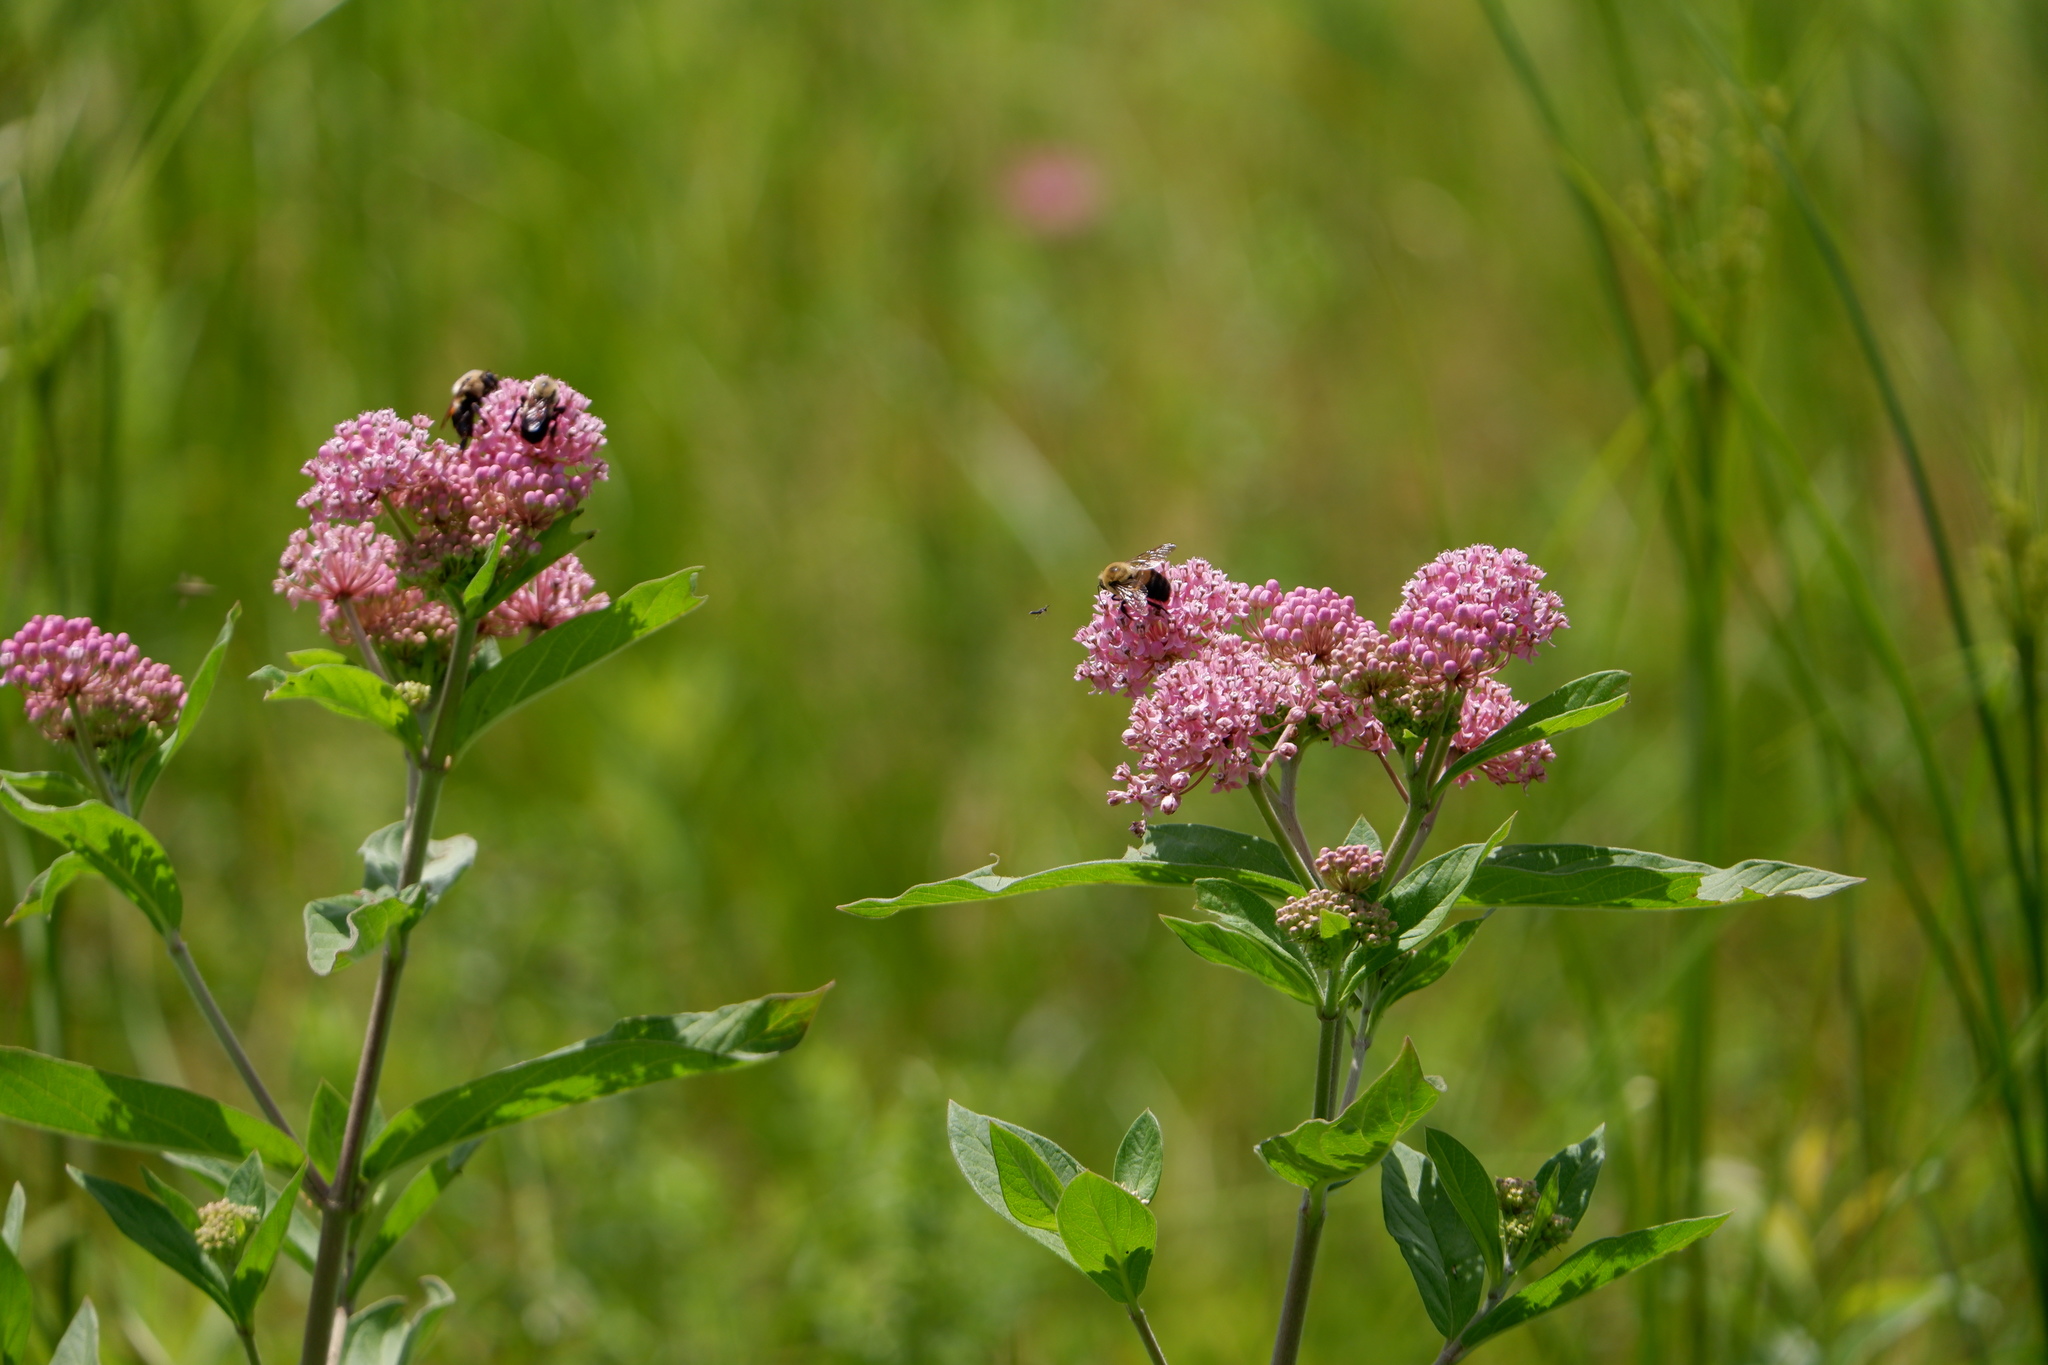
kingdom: Animalia
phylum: Arthropoda
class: Insecta
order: Hymenoptera
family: Apidae
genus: Bombus
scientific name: Bombus griseocollis
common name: Brown-belted bumble bee
